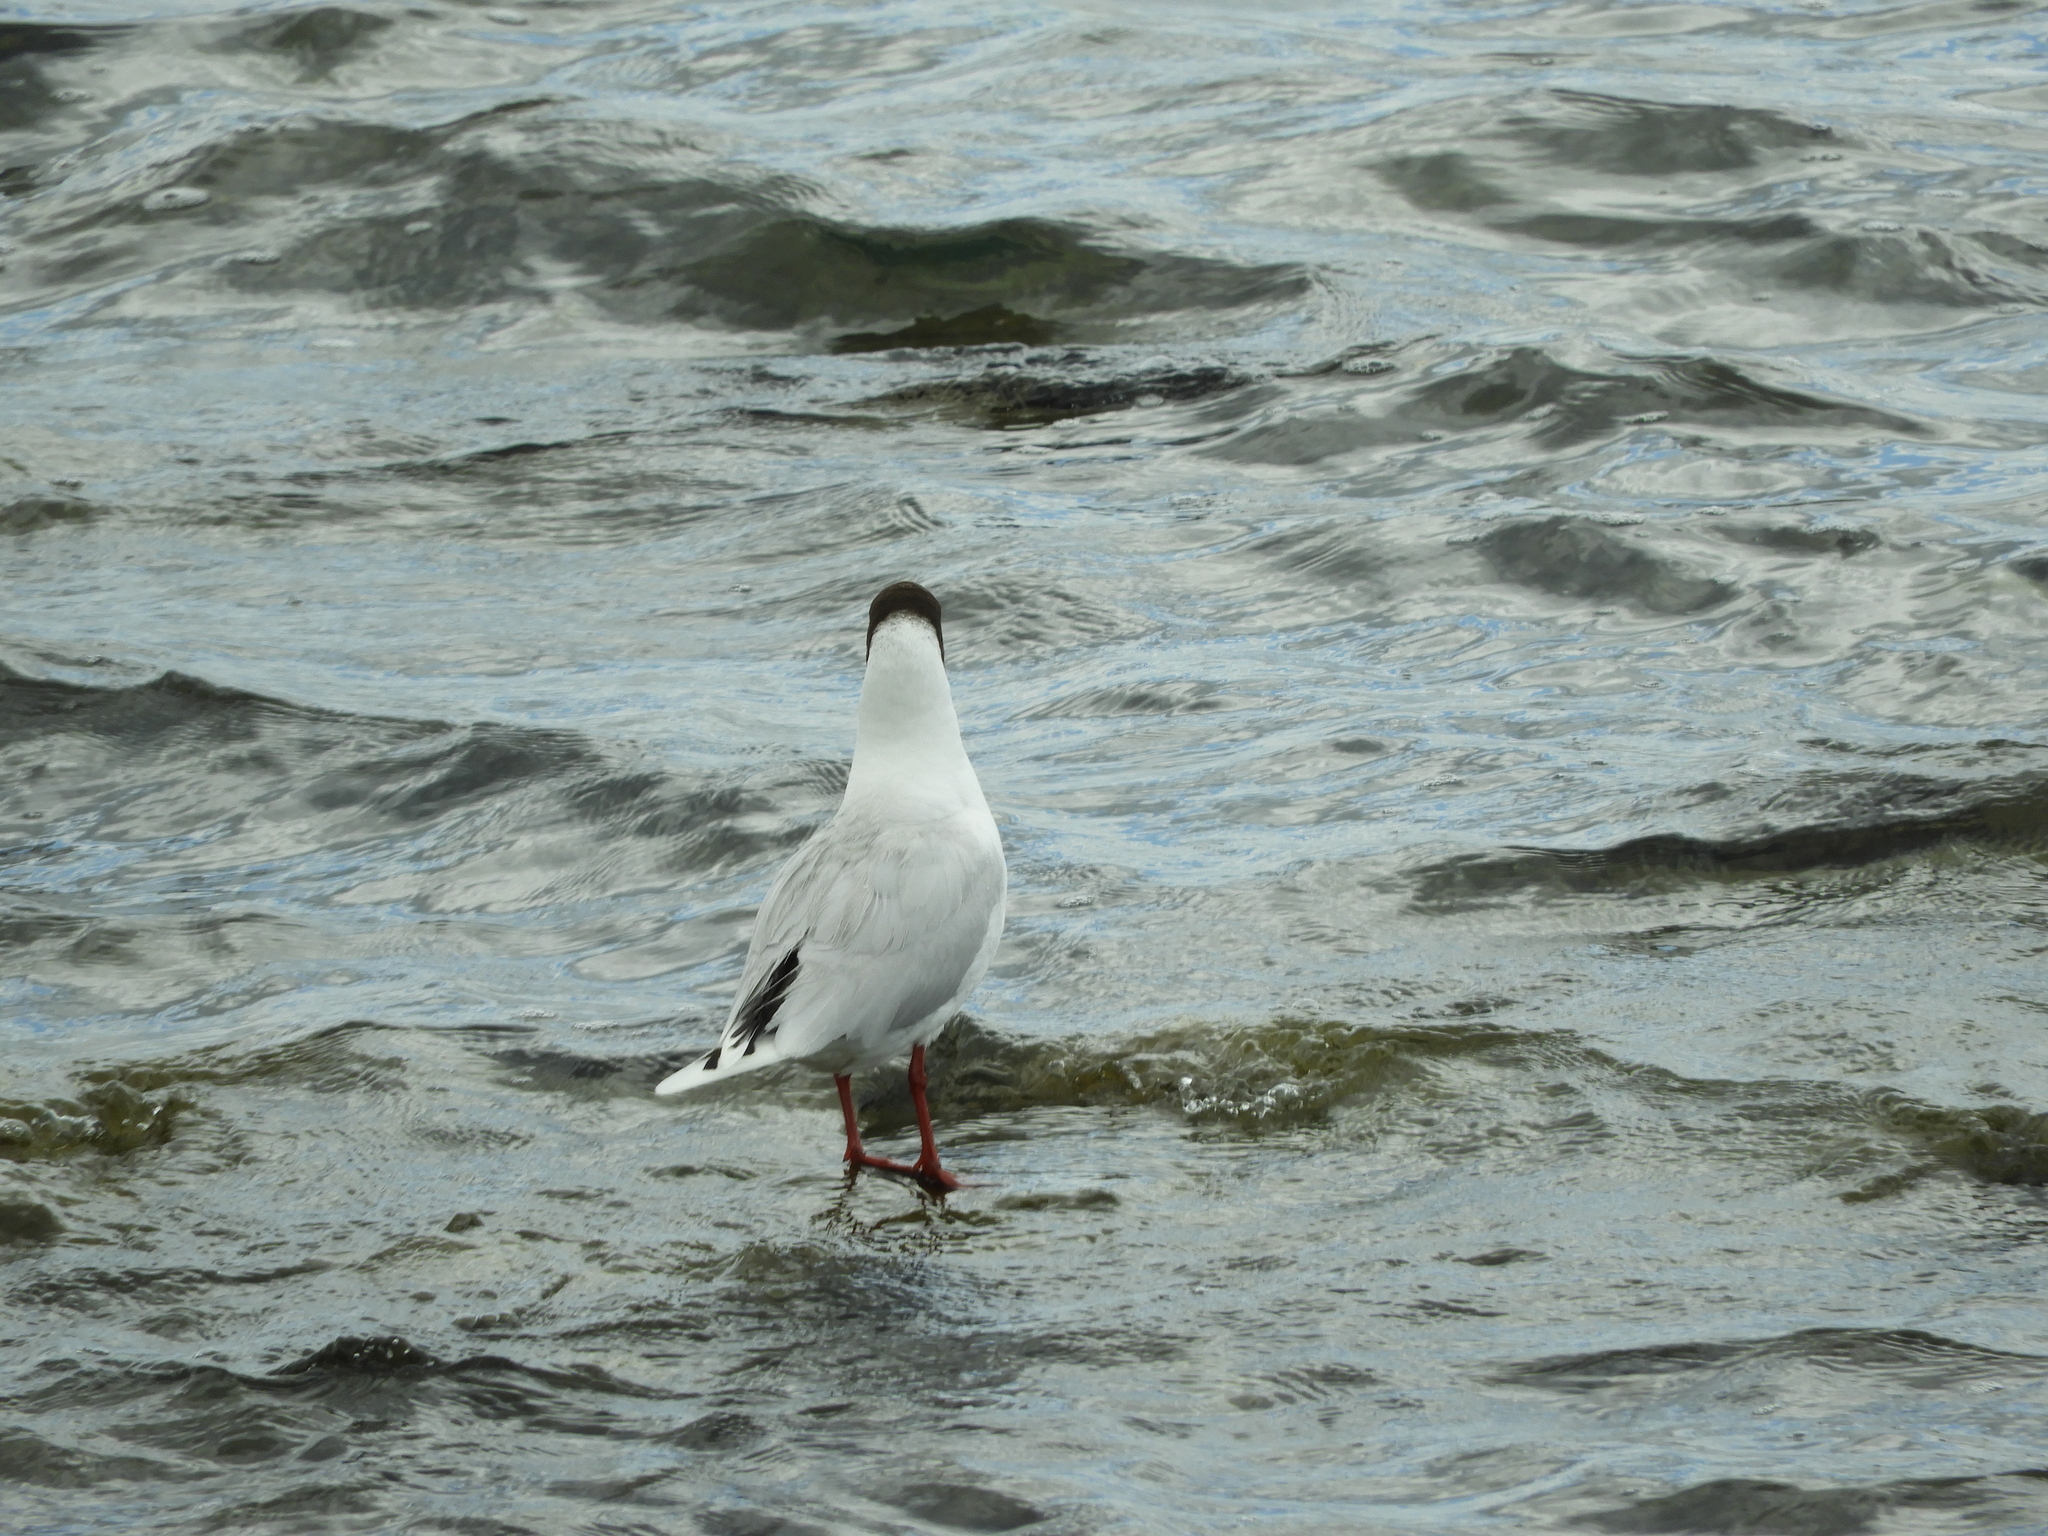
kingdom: Animalia
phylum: Chordata
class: Aves
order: Charadriiformes
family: Laridae
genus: Chroicocephalus
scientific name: Chroicocephalus maculipennis
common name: Brown-hooded gull
